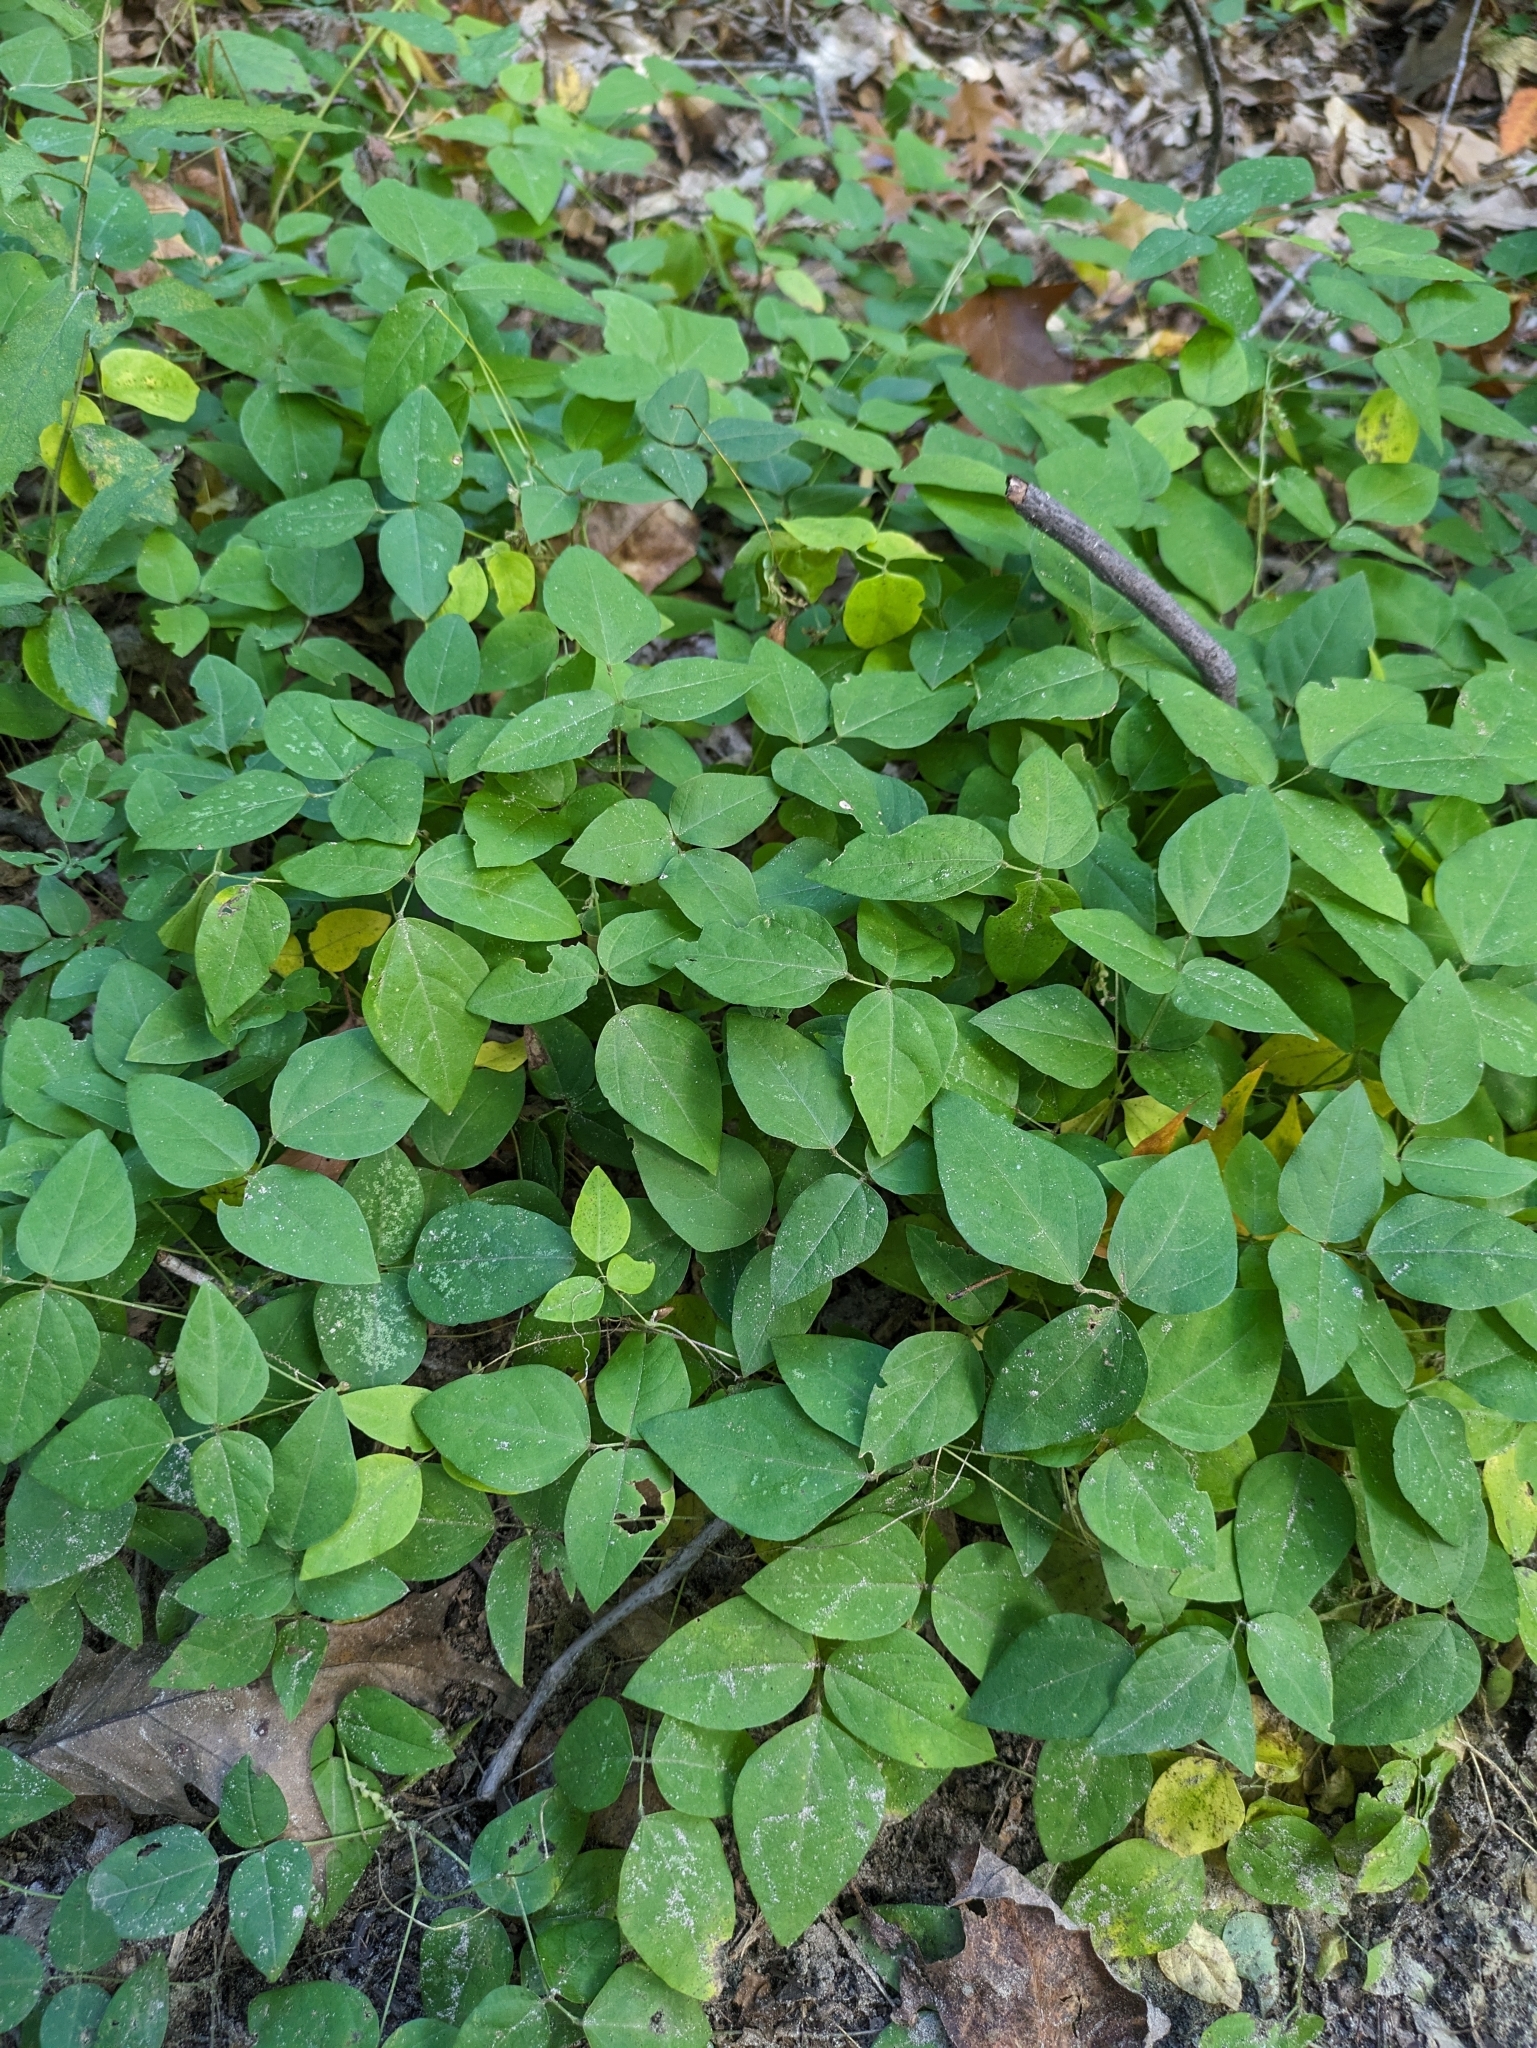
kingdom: Plantae
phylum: Tracheophyta
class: Magnoliopsida
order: Fabales
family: Fabaceae
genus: Amphicarpaea
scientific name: Amphicarpaea bracteata
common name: American hog peanut
